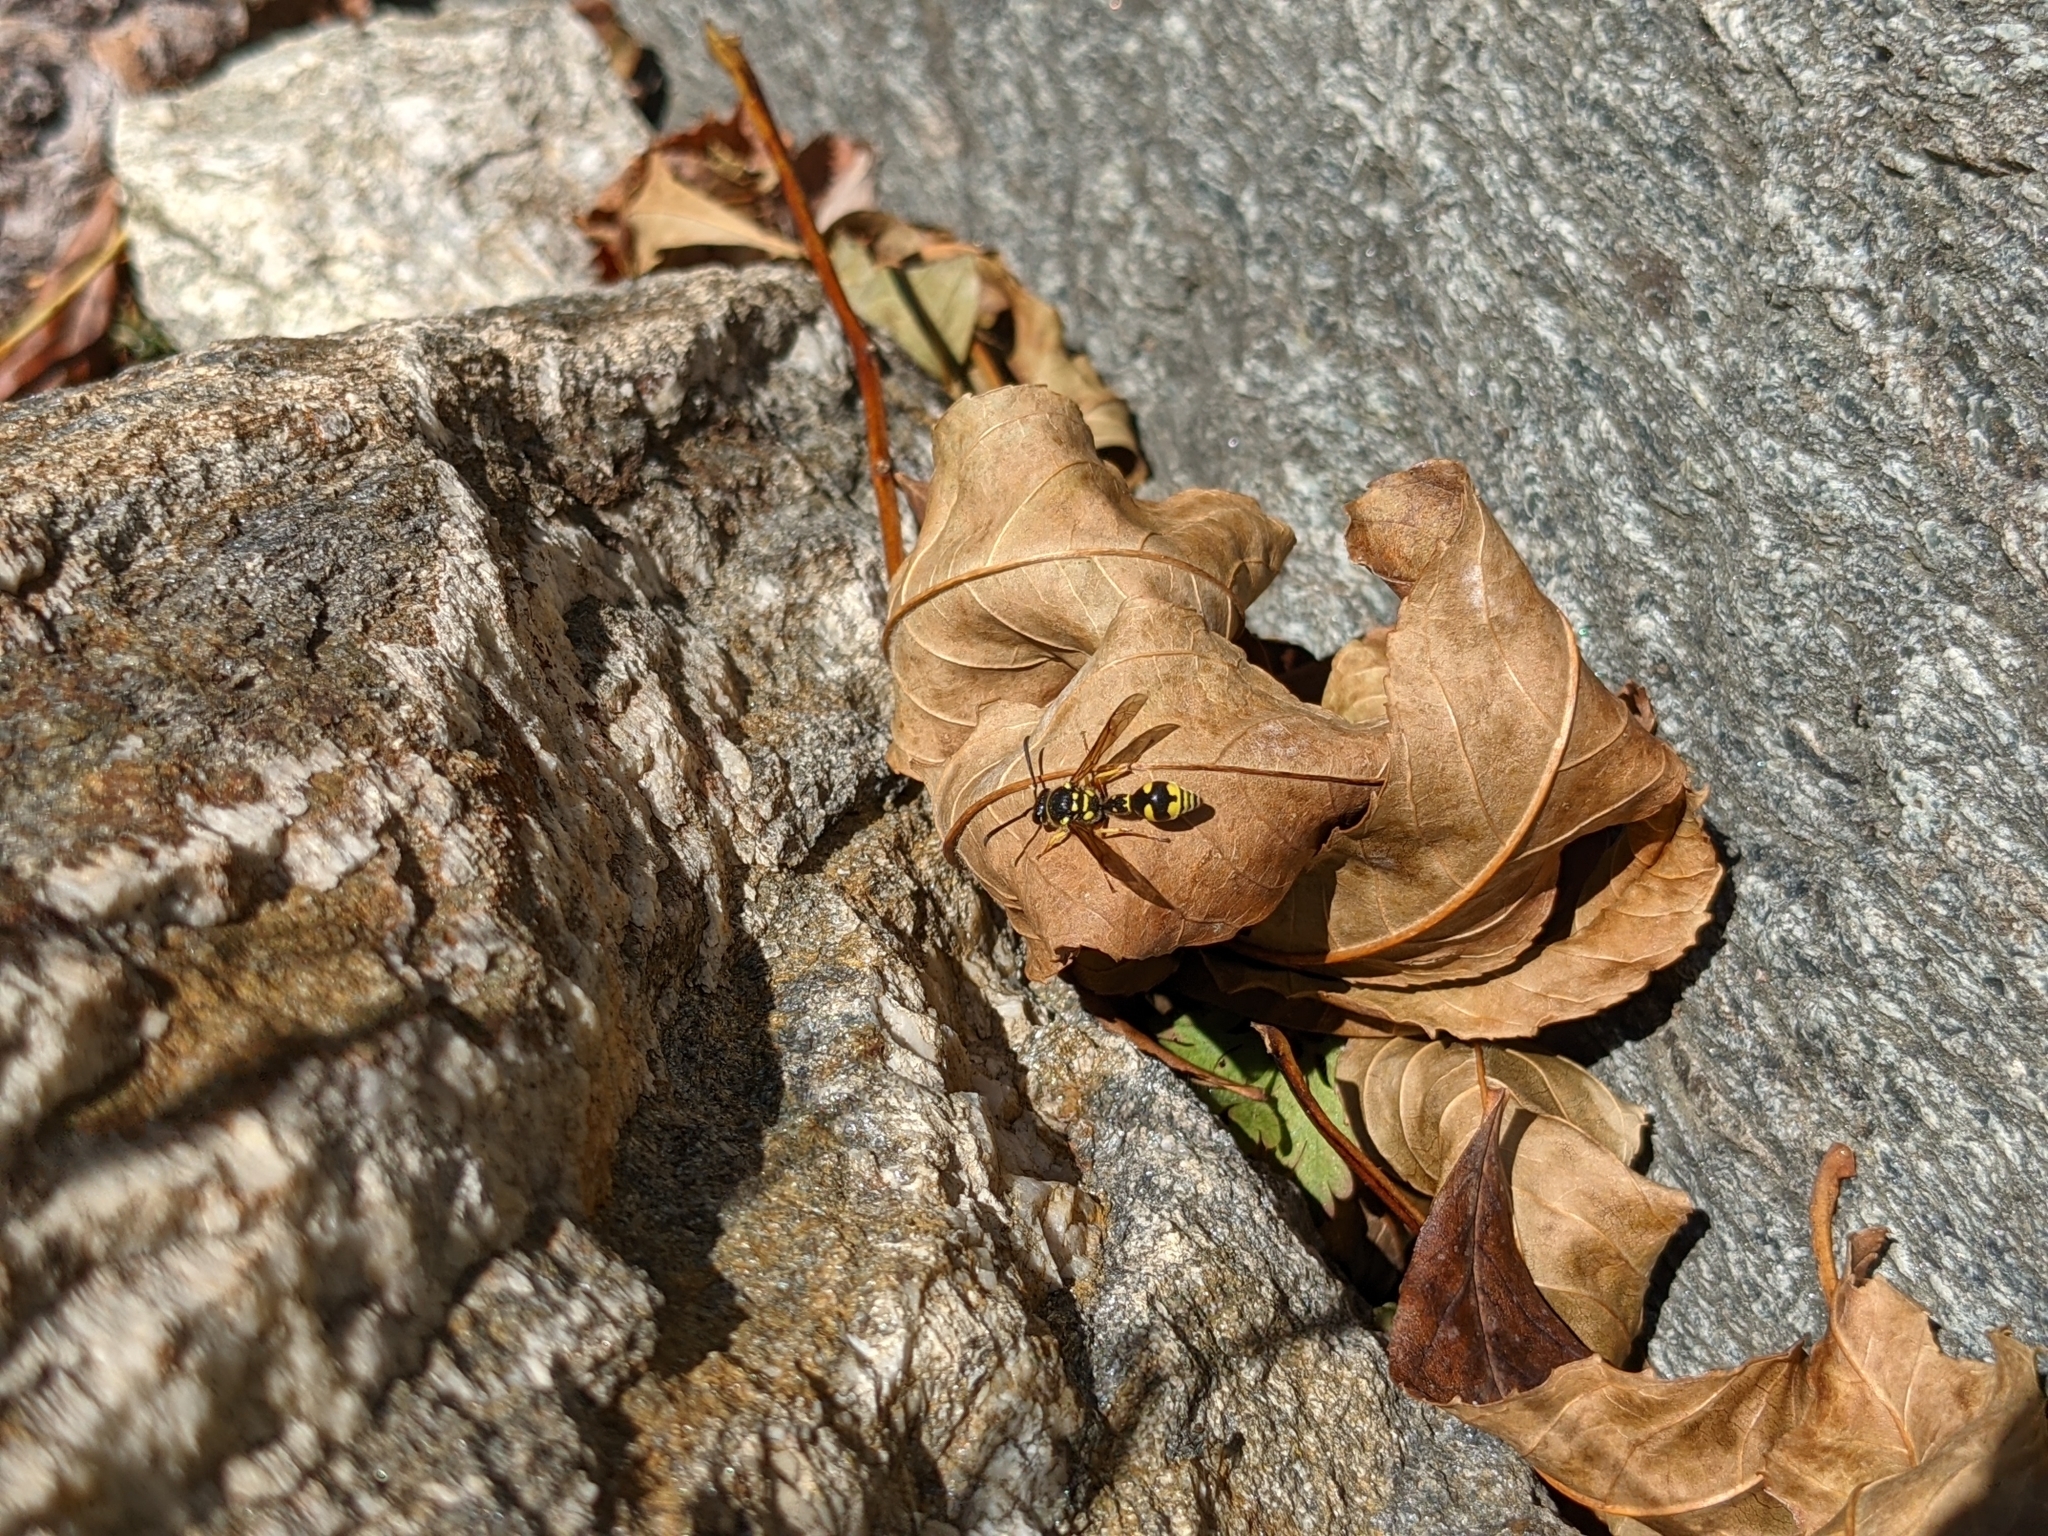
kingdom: Animalia
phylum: Arthropoda
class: Insecta
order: Hymenoptera
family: Vespidae
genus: Eumenes
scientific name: Eumenes
